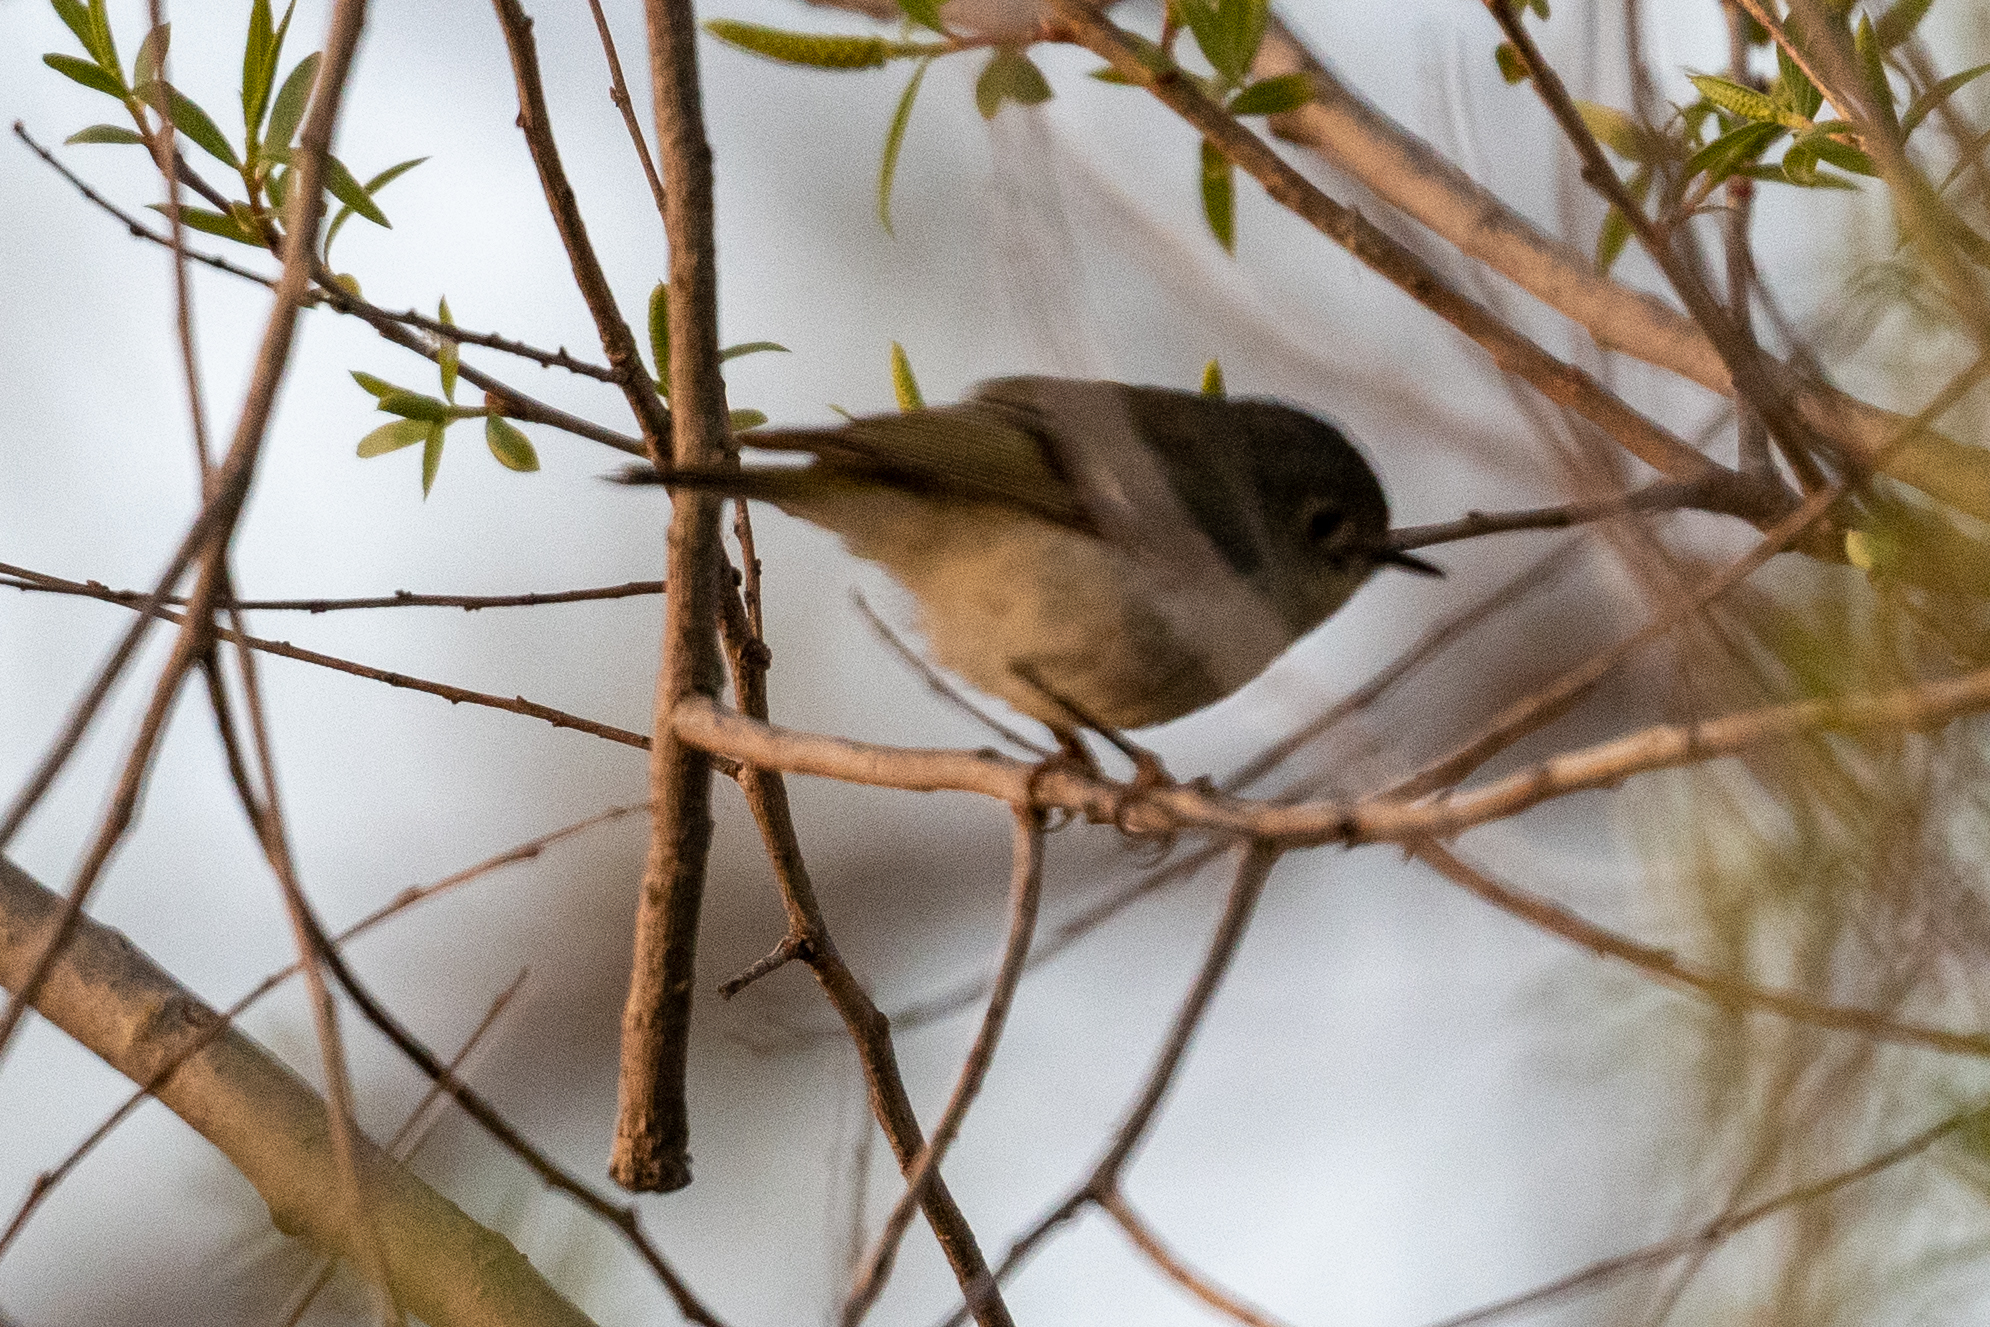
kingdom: Animalia
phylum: Chordata
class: Aves
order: Passeriformes
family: Regulidae
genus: Regulus
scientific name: Regulus calendula
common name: Ruby-crowned kinglet
